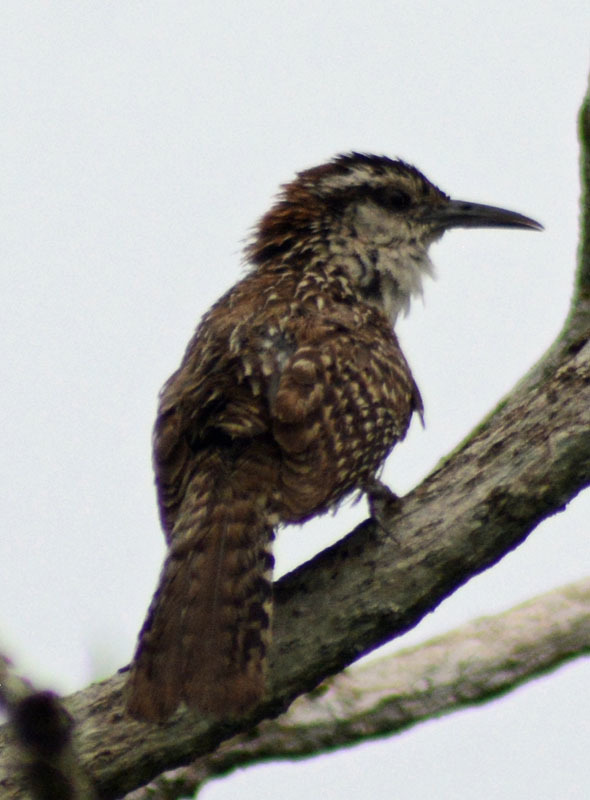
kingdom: Animalia
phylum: Chordata
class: Aves
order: Passeriformes
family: Troglodytidae
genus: Campylorhynchus
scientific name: Campylorhynchus rufinucha
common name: Rufous-naped wren
